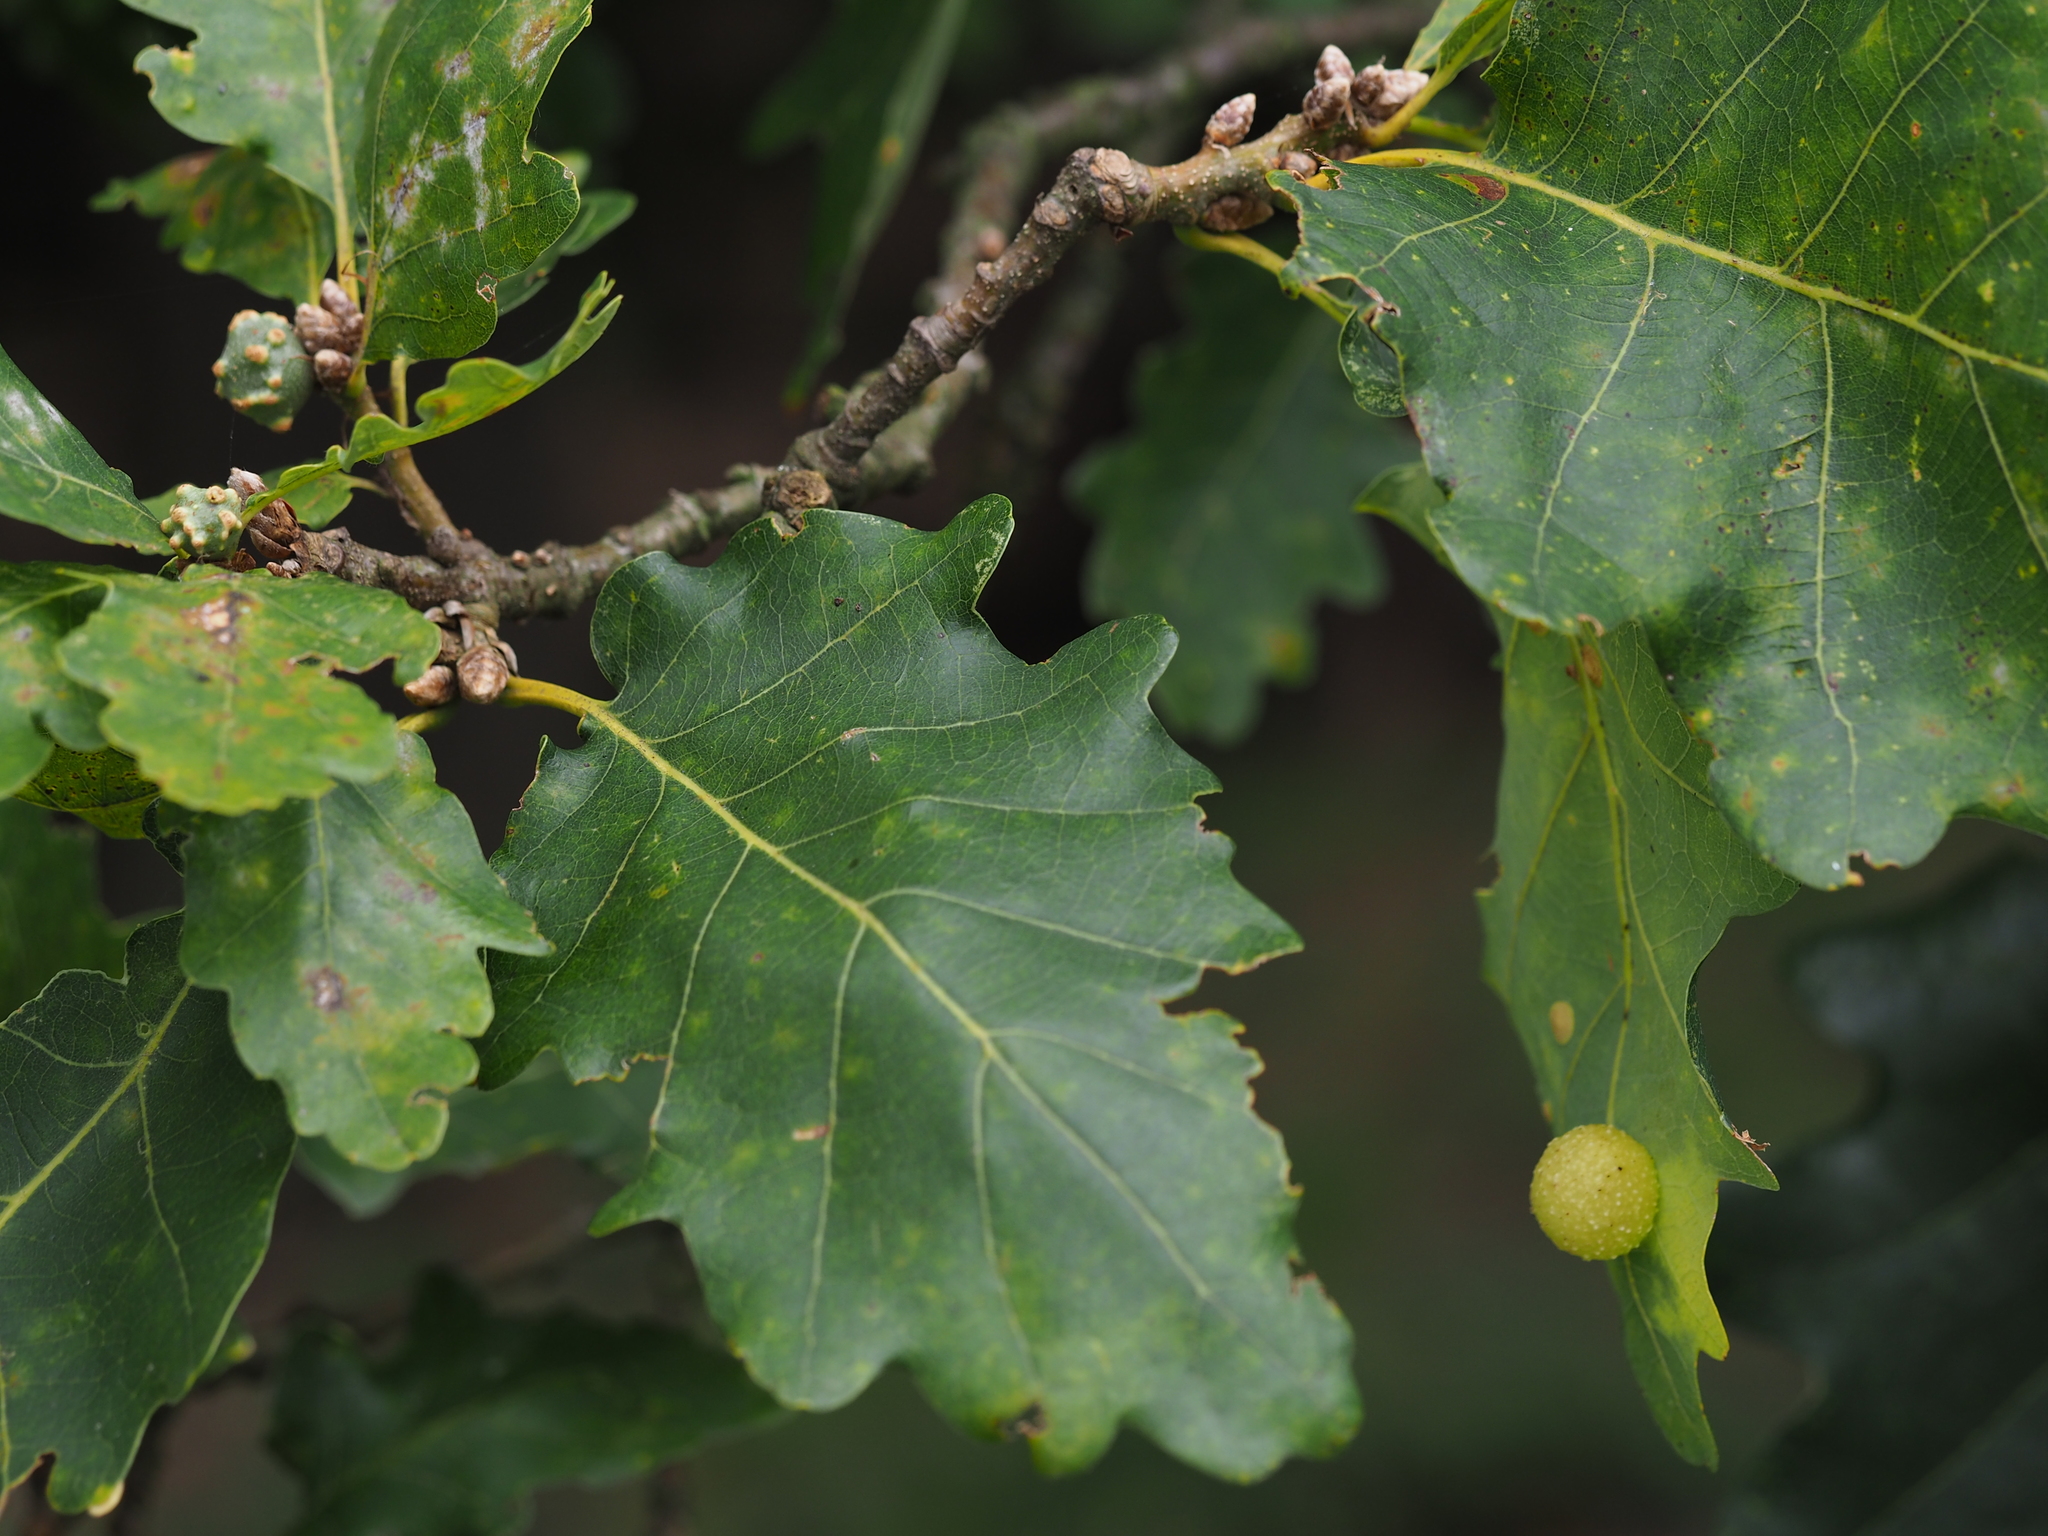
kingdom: Animalia
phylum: Arthropoda
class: Insecta
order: Hymenoptera
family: Cynipidae
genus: Cynips
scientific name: Cynips quercusfolii
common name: Cherry gall
